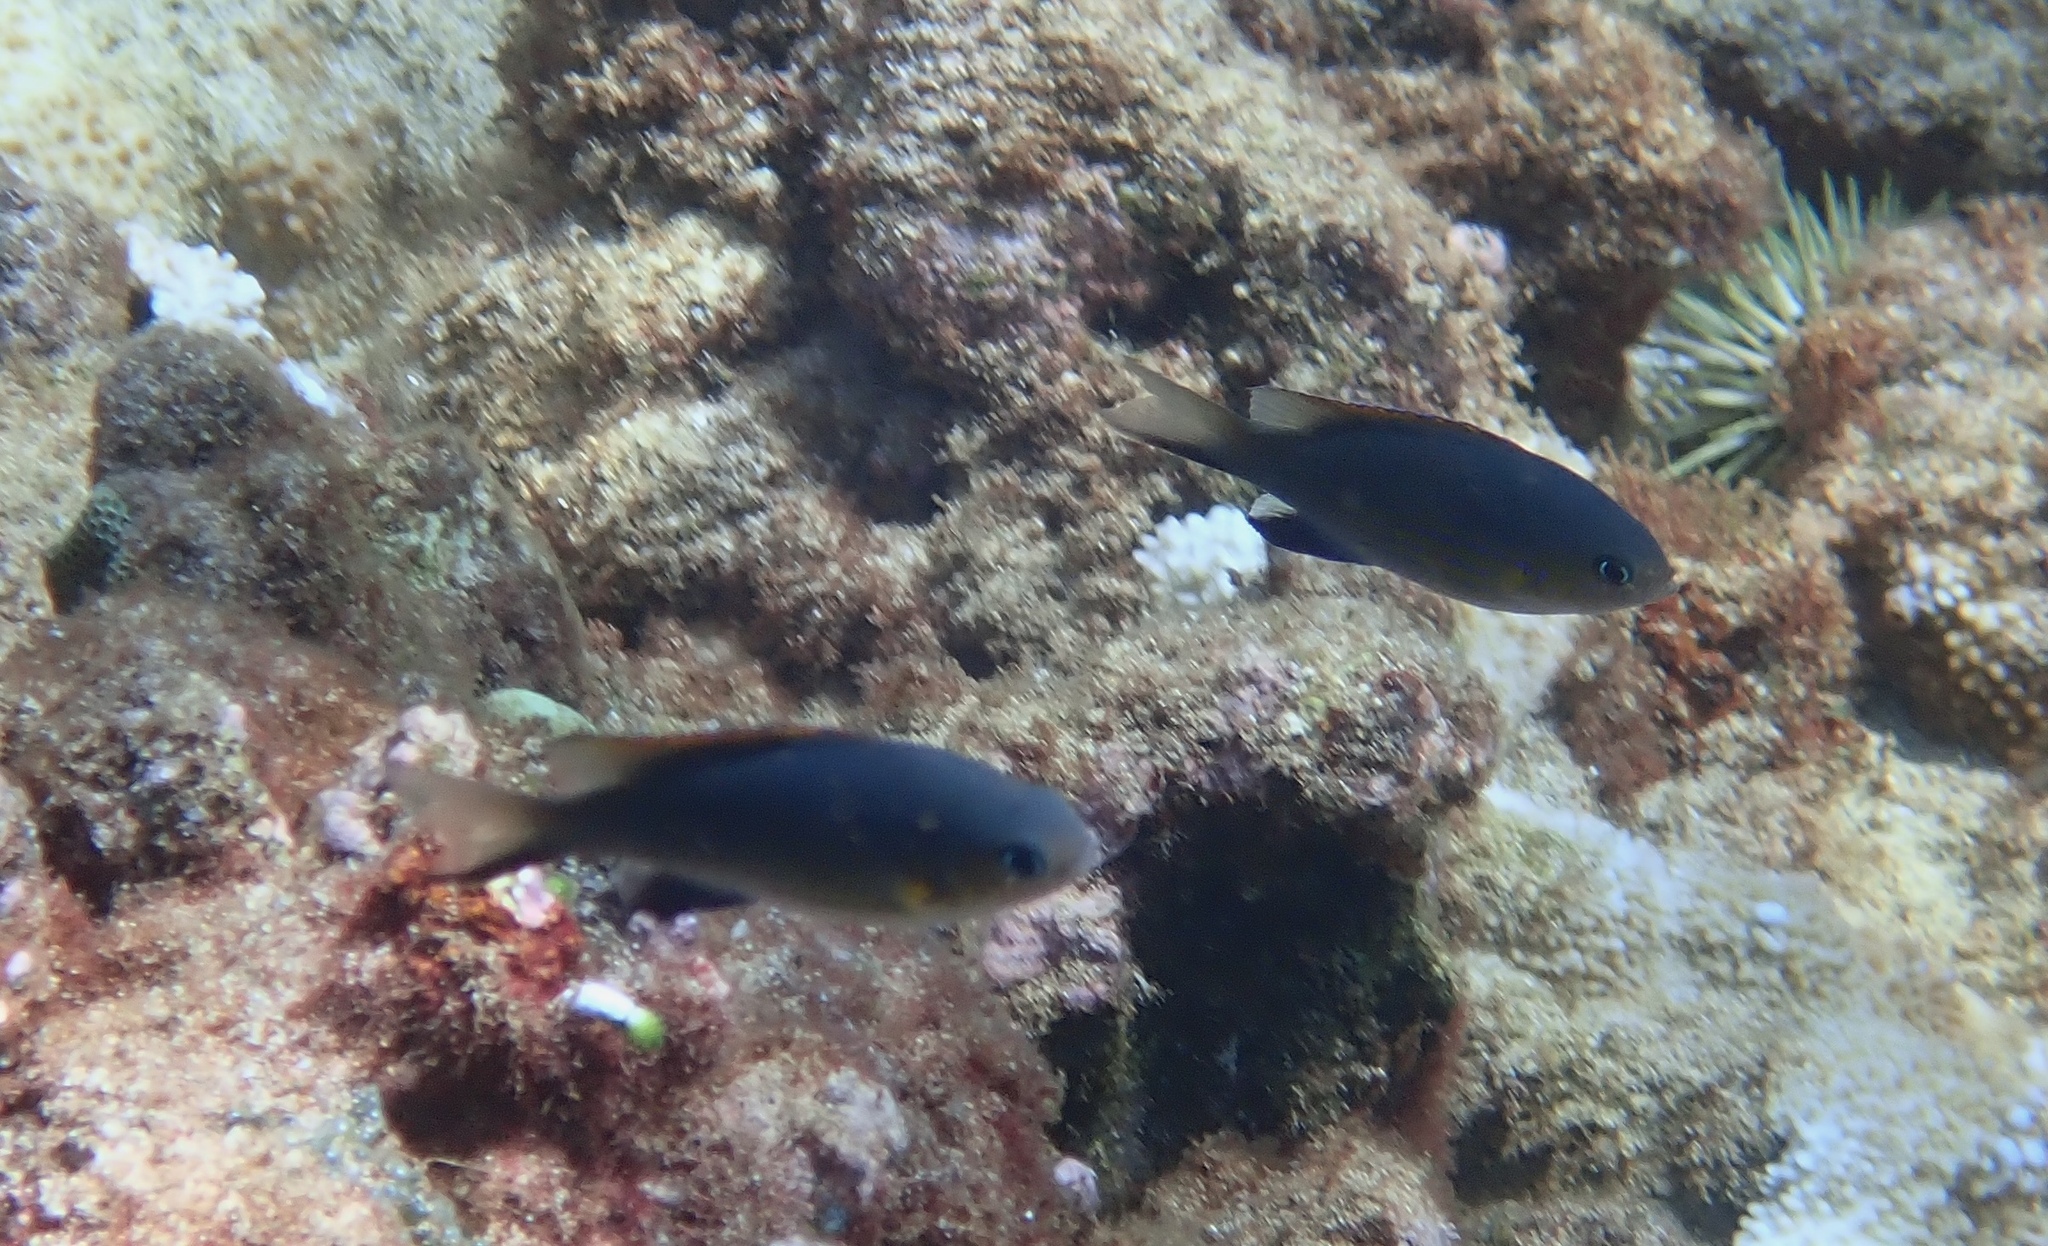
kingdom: Animalia
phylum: Chordata
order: Perciformes
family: Pomacentridae
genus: Chromis
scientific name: Chromis vanderbilti
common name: Vanderbilt's chromis
